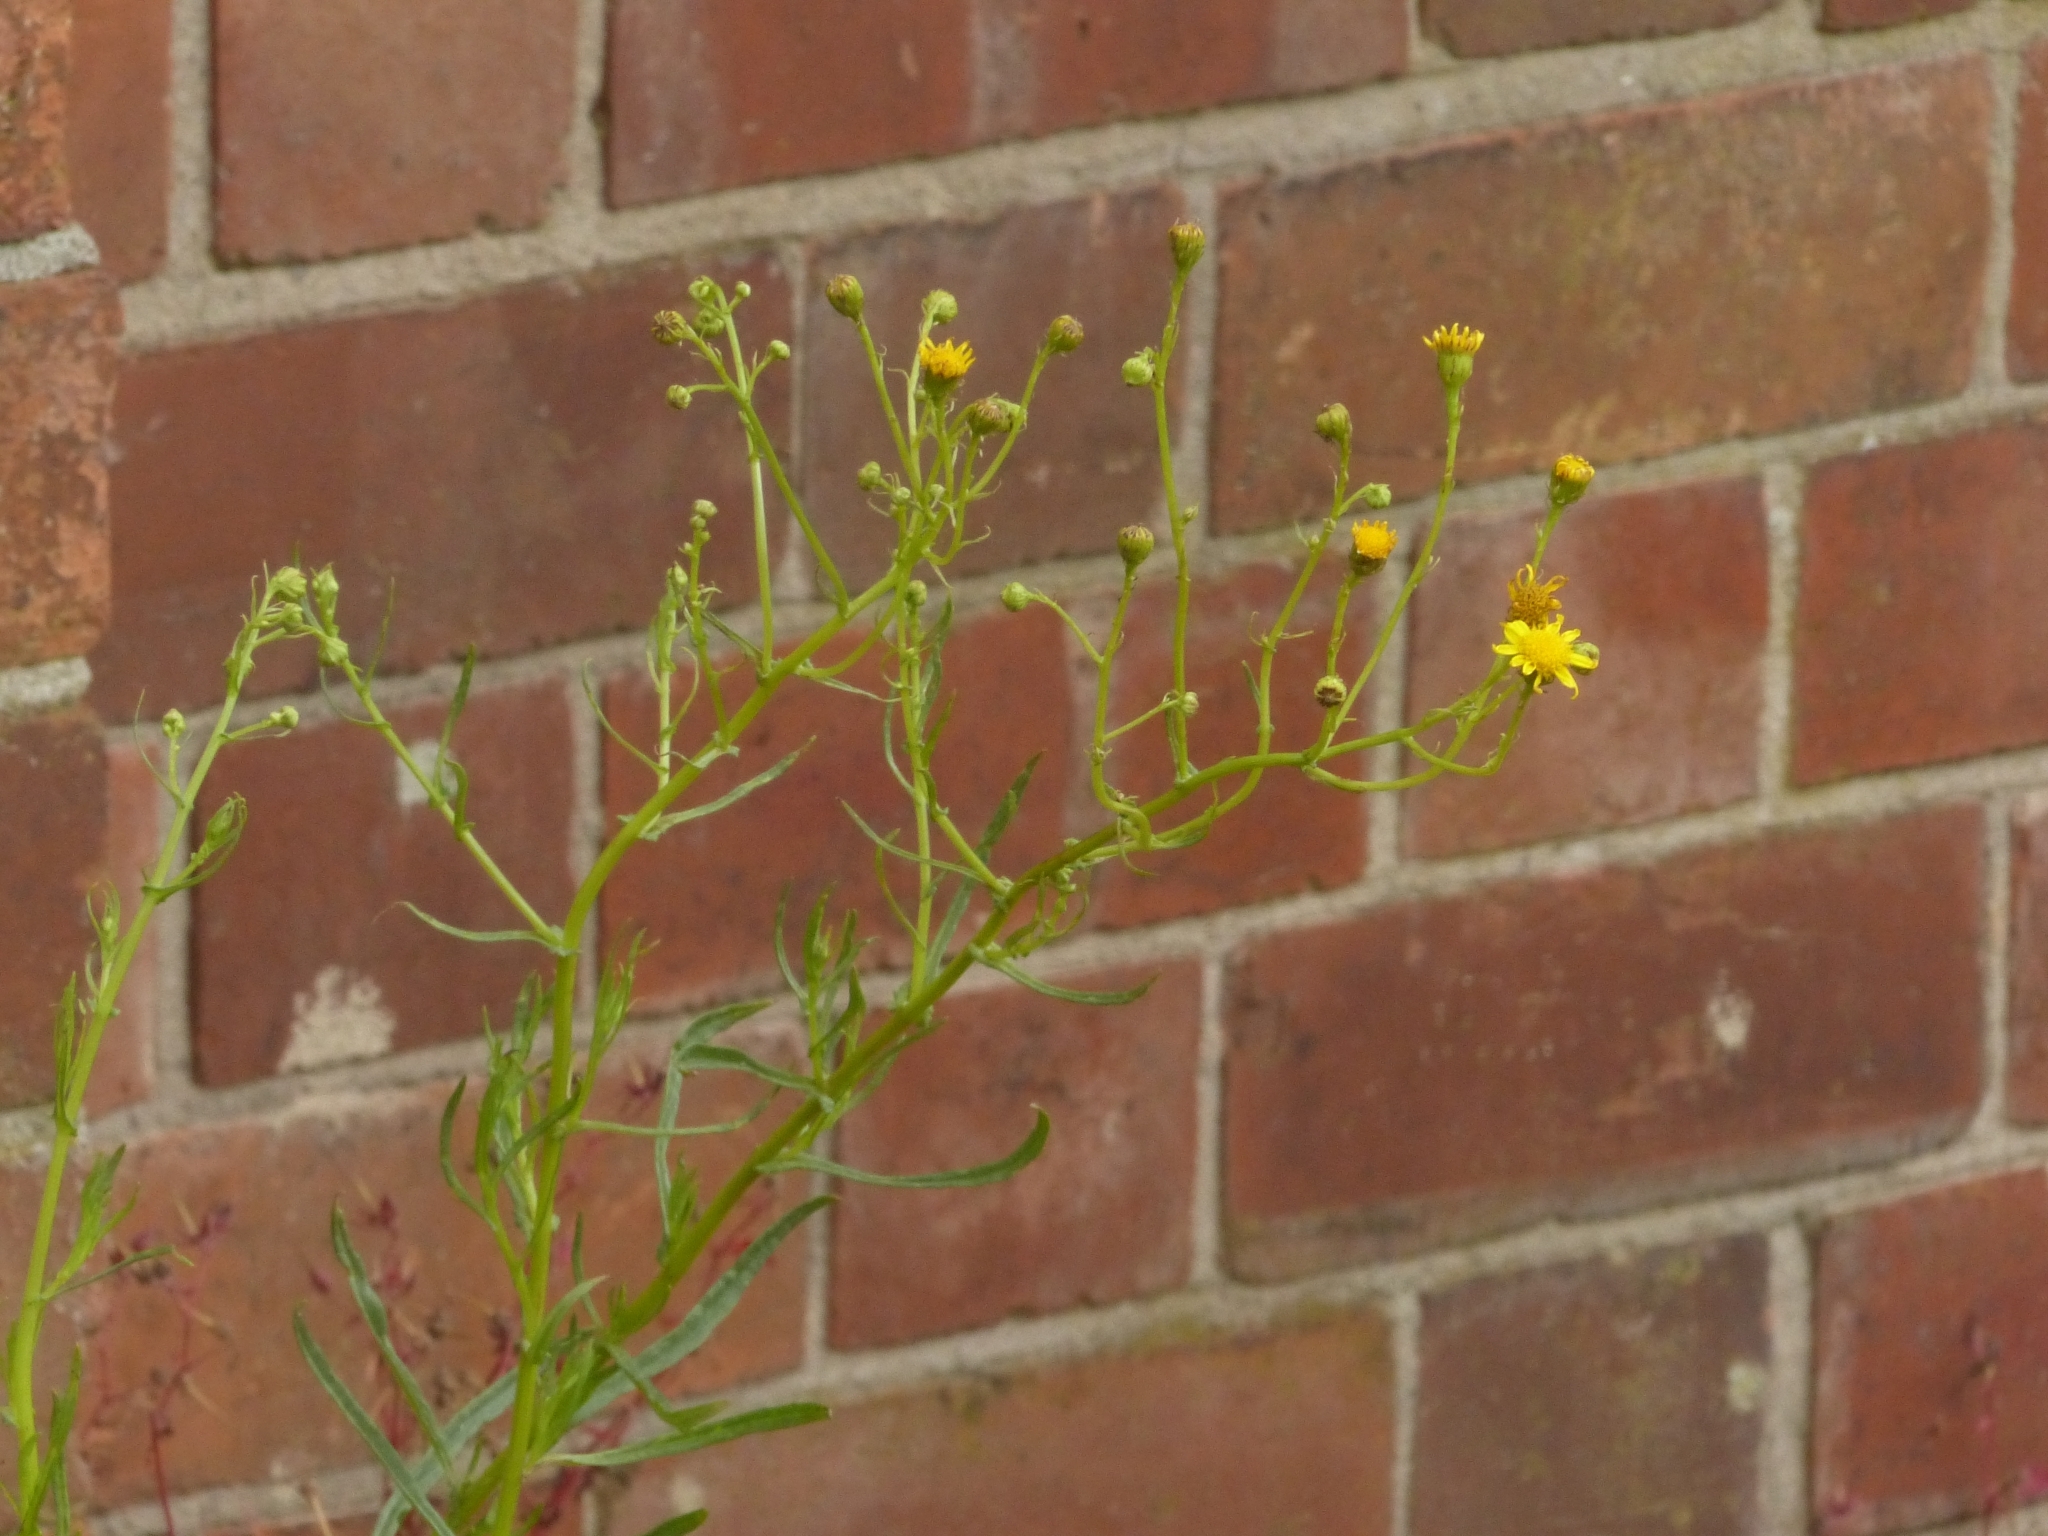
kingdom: Plantae
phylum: Tracheophyta
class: Magnoliopsida
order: Asterales
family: Asteraceae
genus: Senecio
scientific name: Senecio inaequidens
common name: Narrow-leaved ragwort
